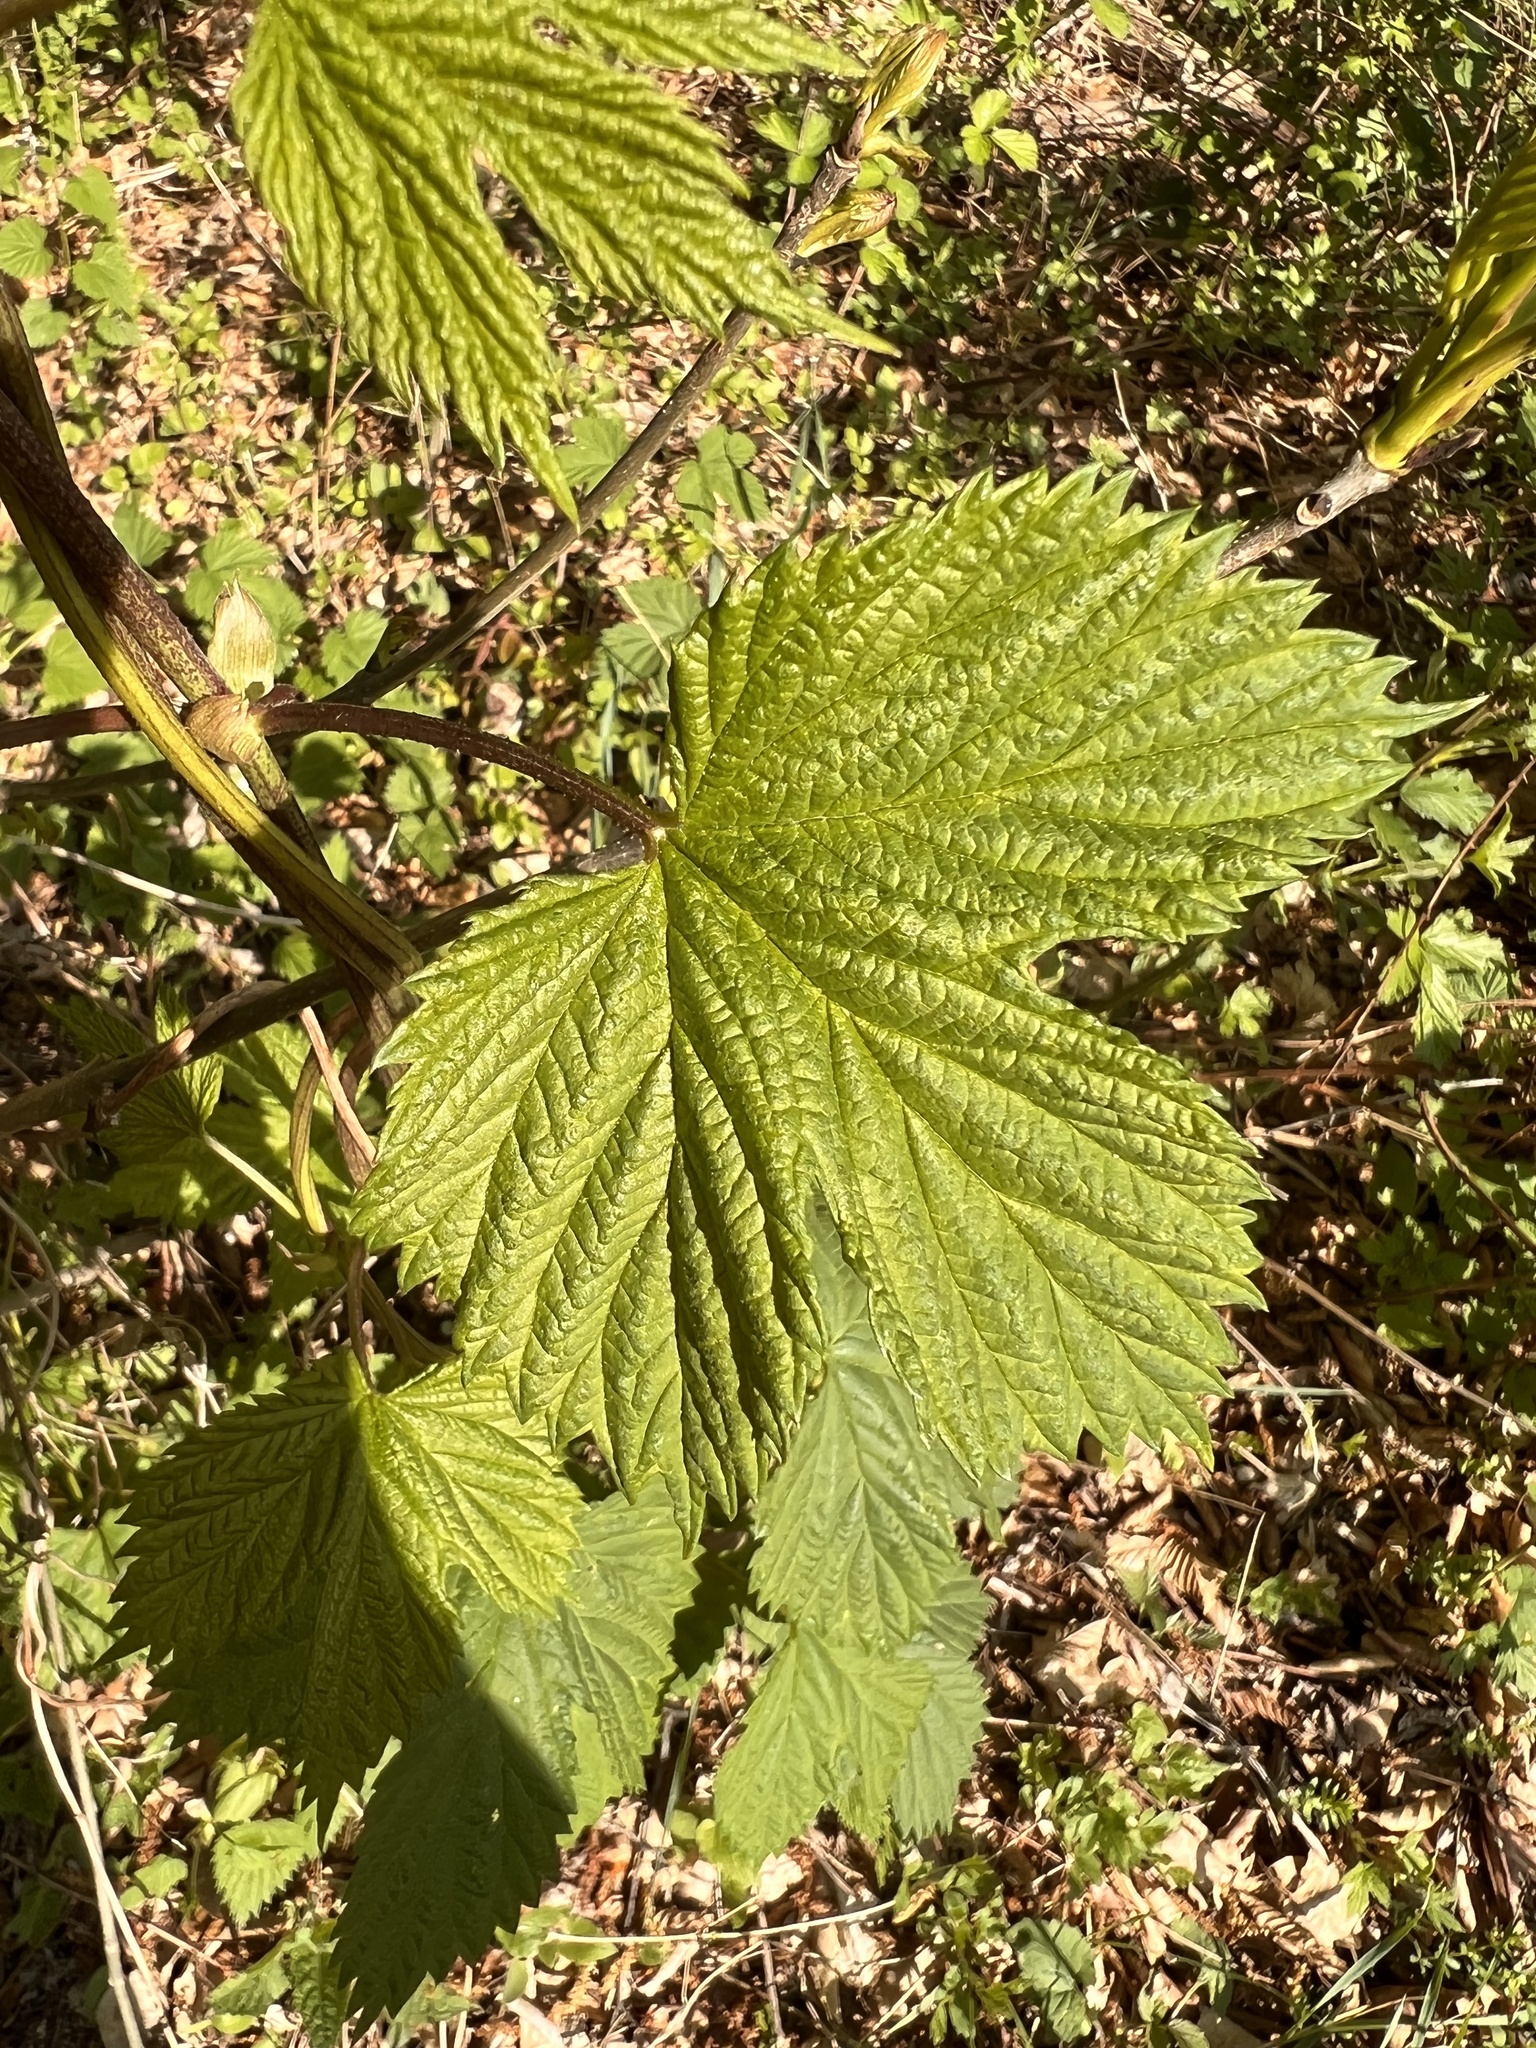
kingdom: Plantae
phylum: Tracheophyta
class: Magnoliopsida
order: Rosales
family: Cannabaceae
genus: Humulus
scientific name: Humulus lupulus
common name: Hop
